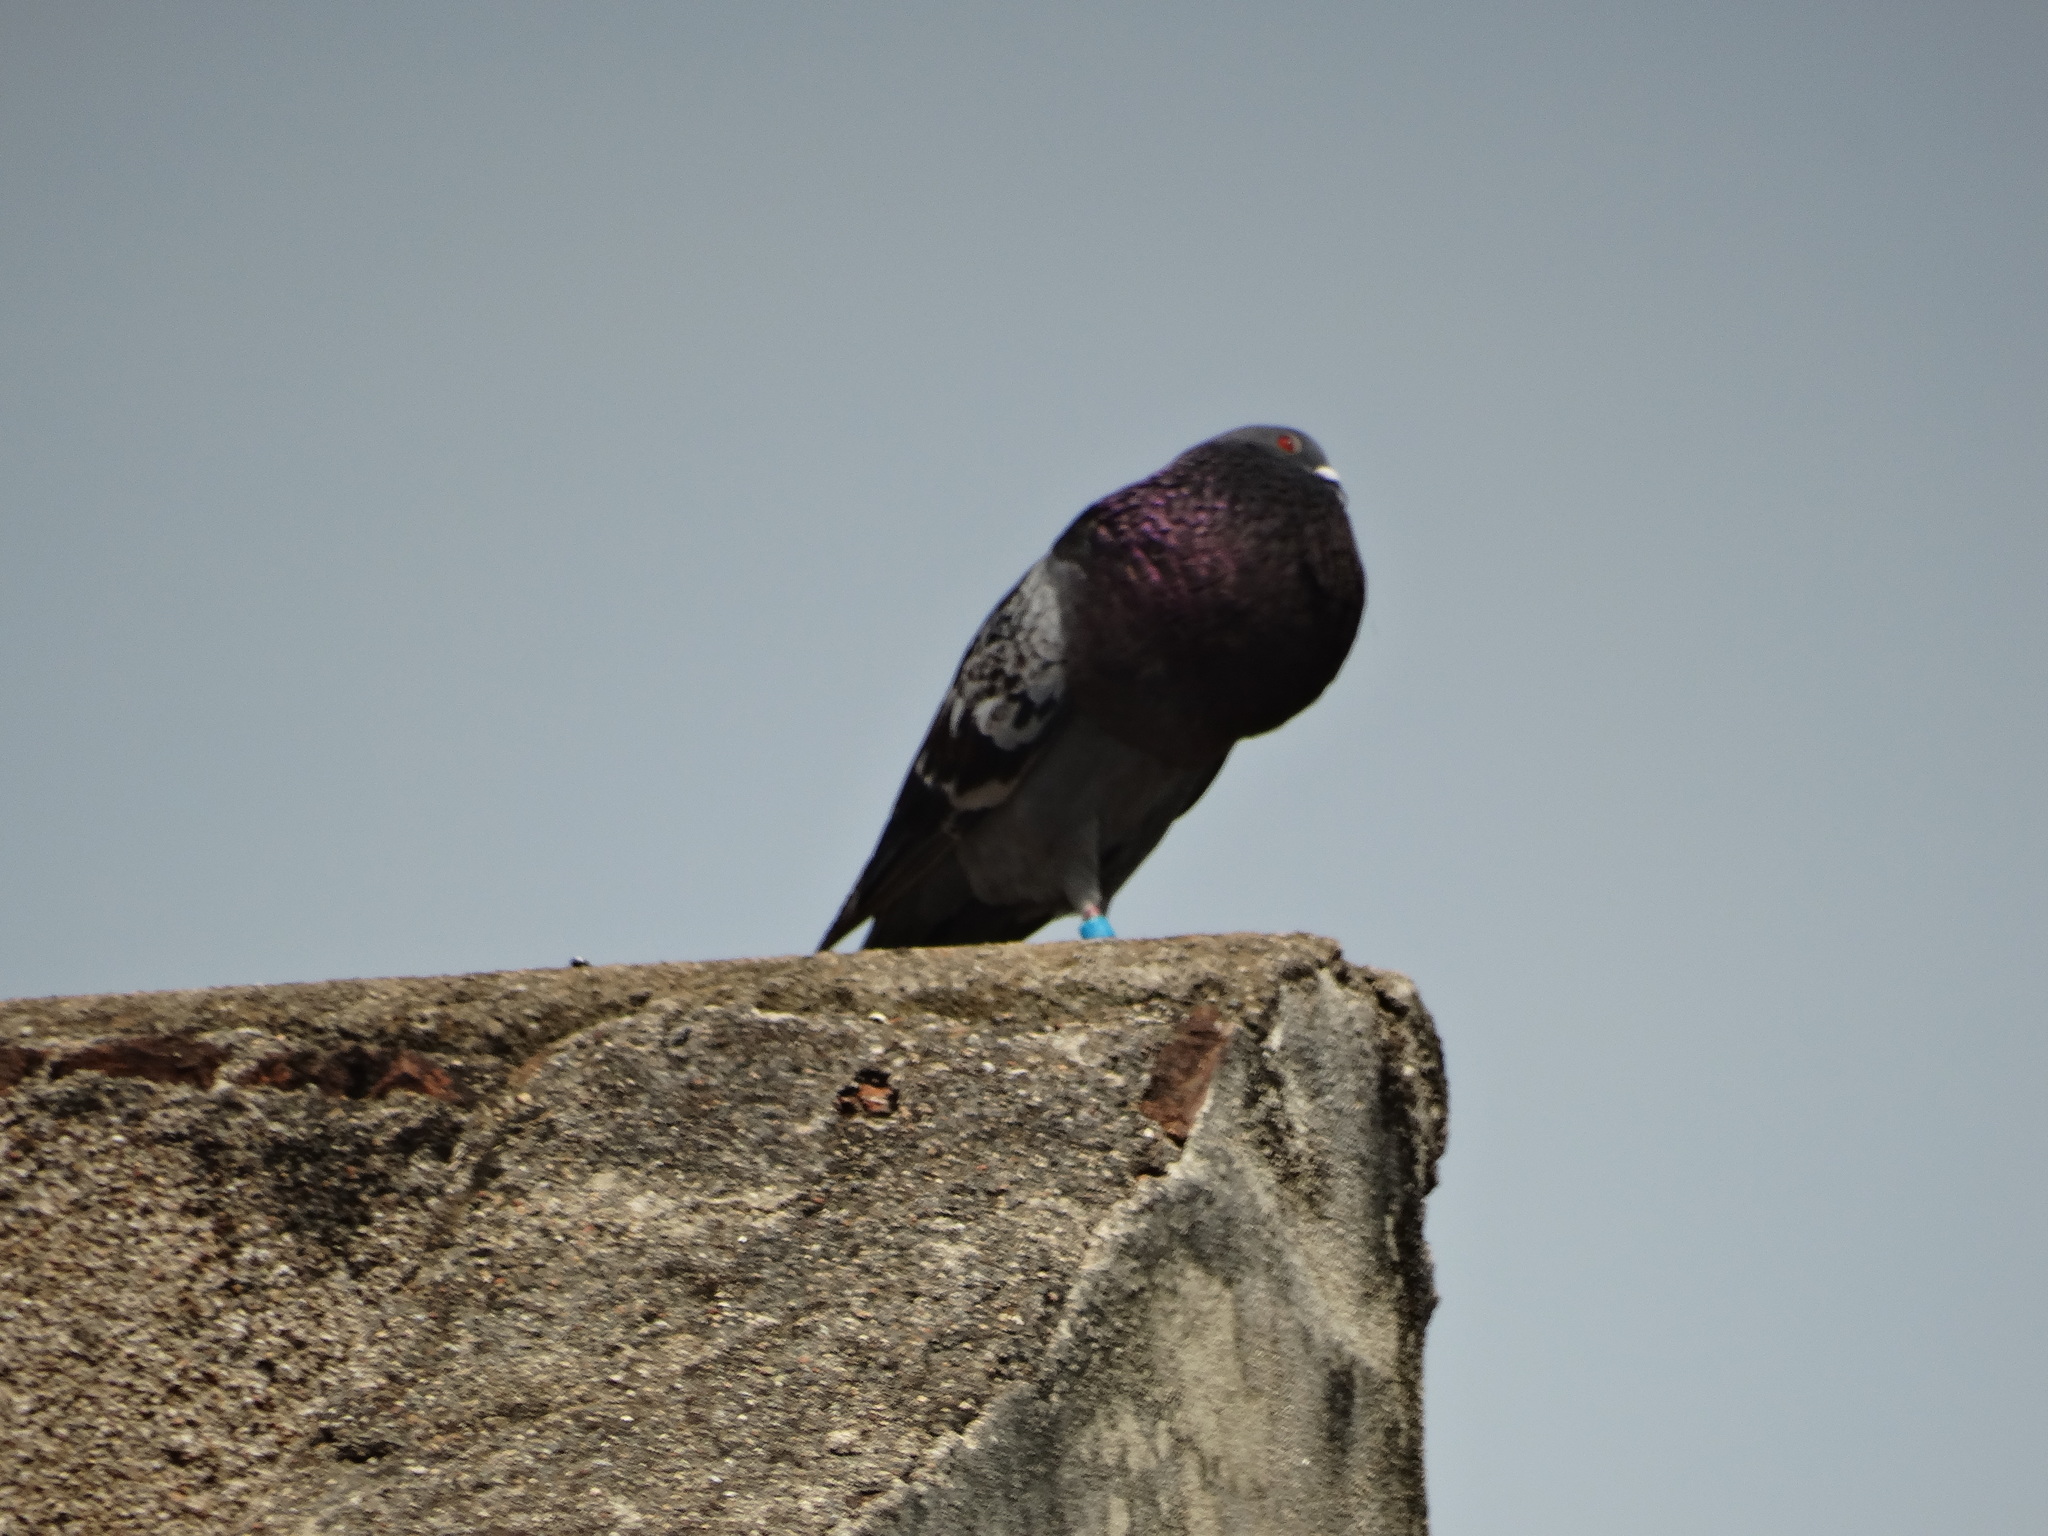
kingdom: Animalia
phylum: Chordata
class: Aves
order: Columbiformes
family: Columbidae
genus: Columba
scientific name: Columba livia
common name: Rock pigeon
